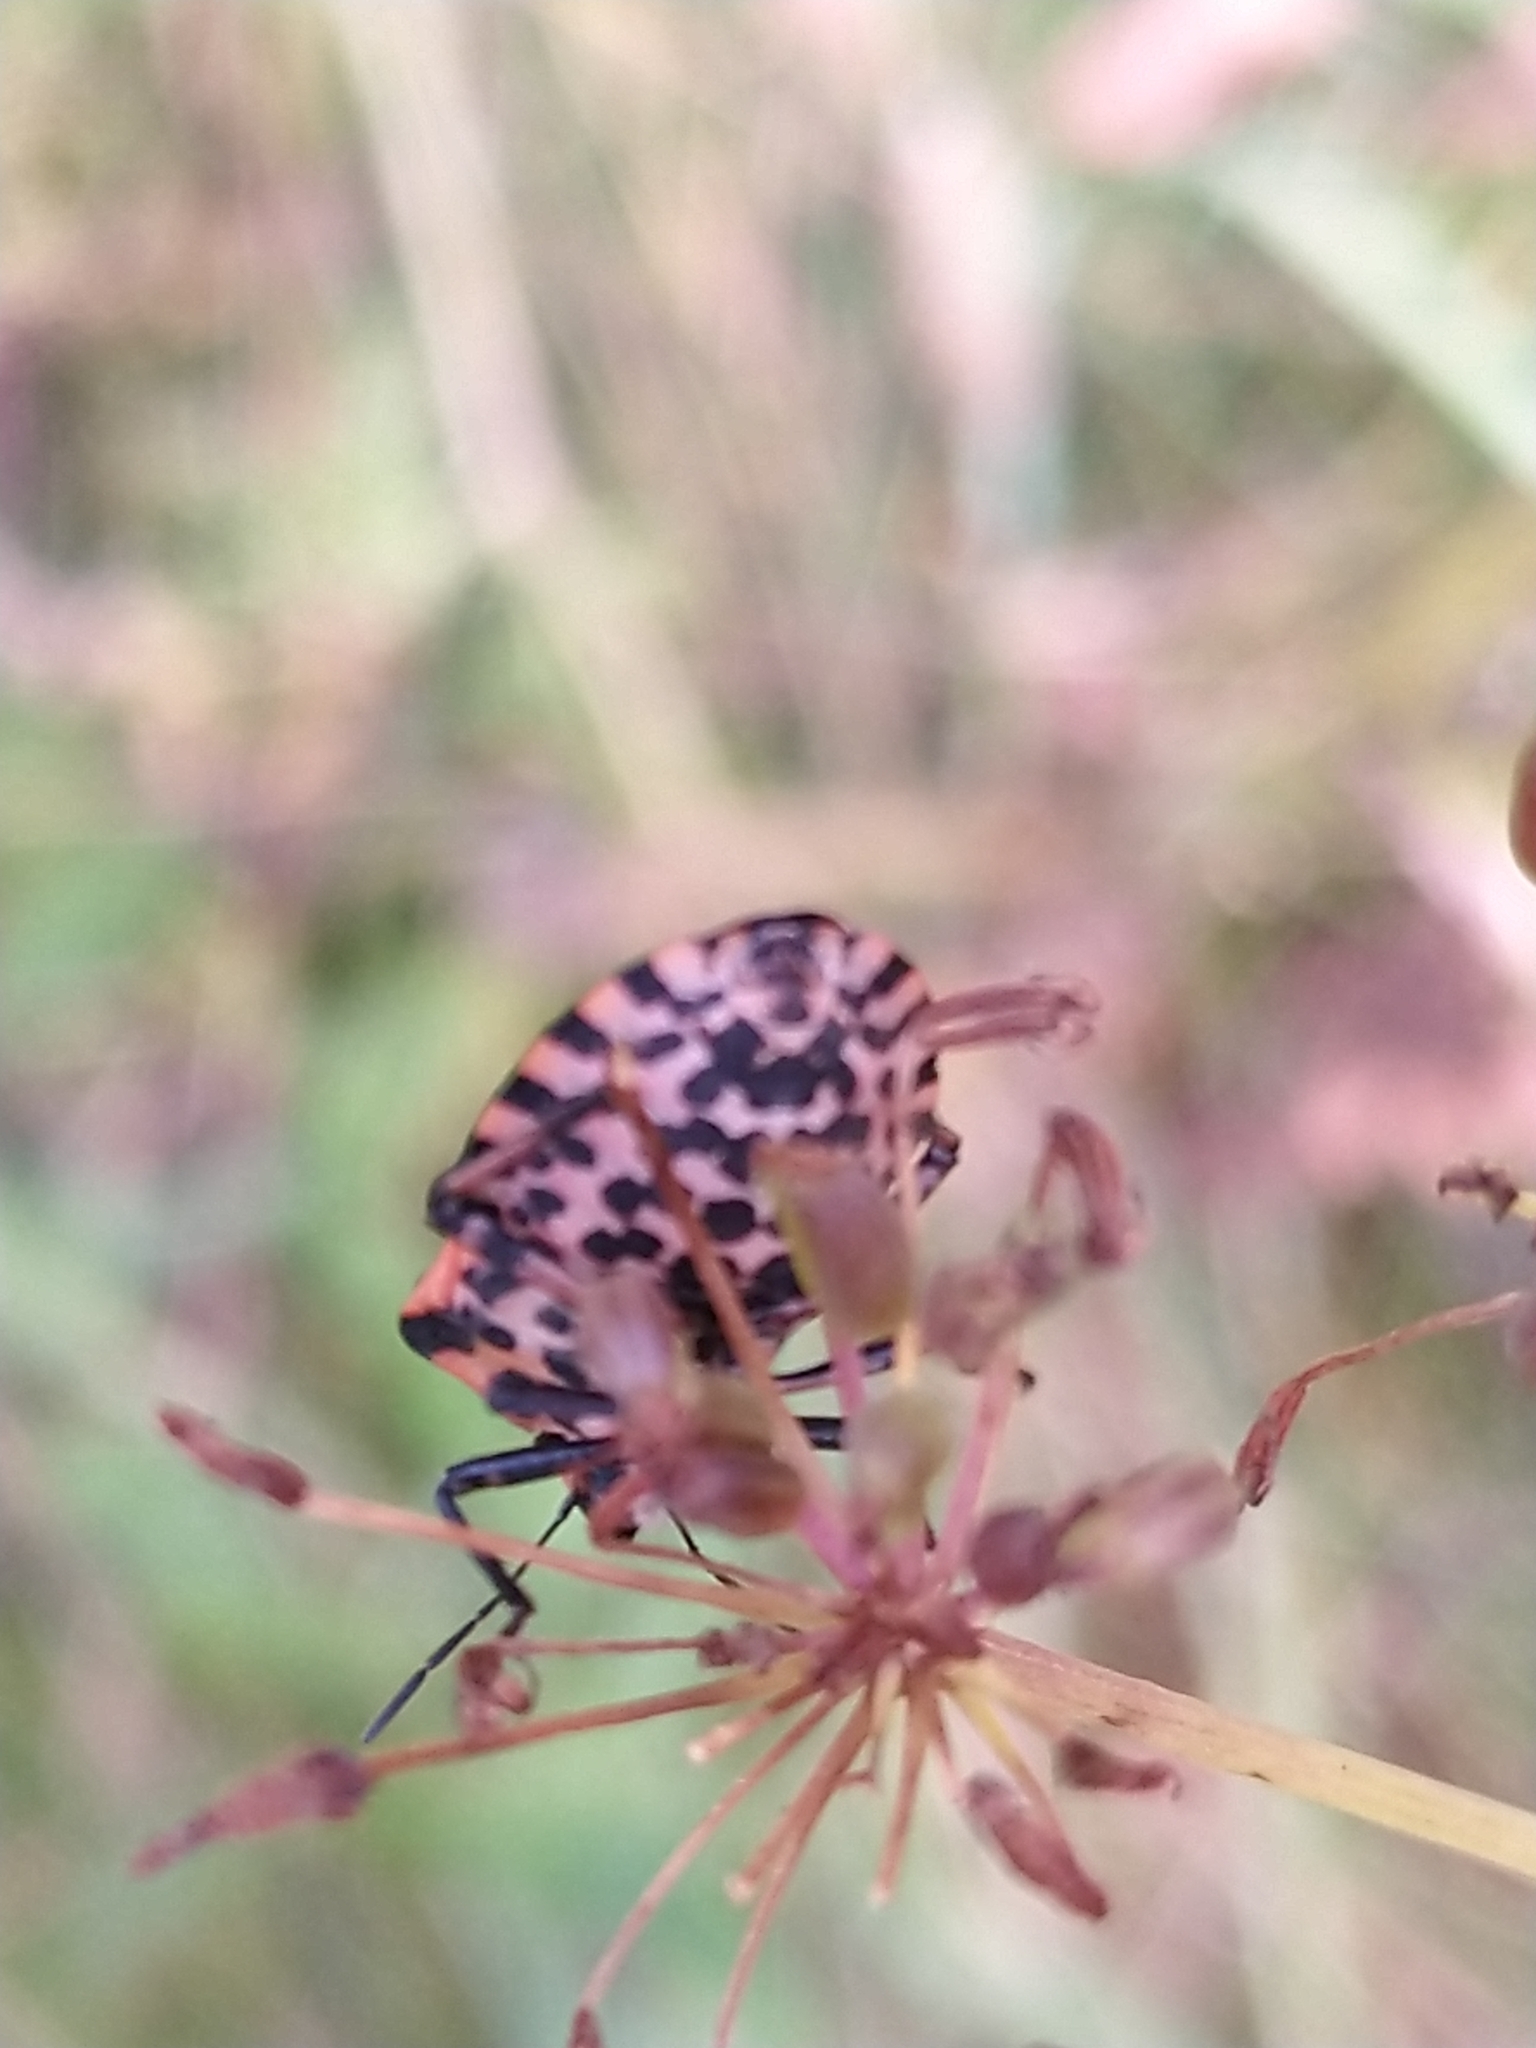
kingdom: Animalia
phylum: Arthropoda
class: Insecta
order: Hemiptera
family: Pentatomidae
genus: Graphosoma
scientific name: Graphosoma italicum
